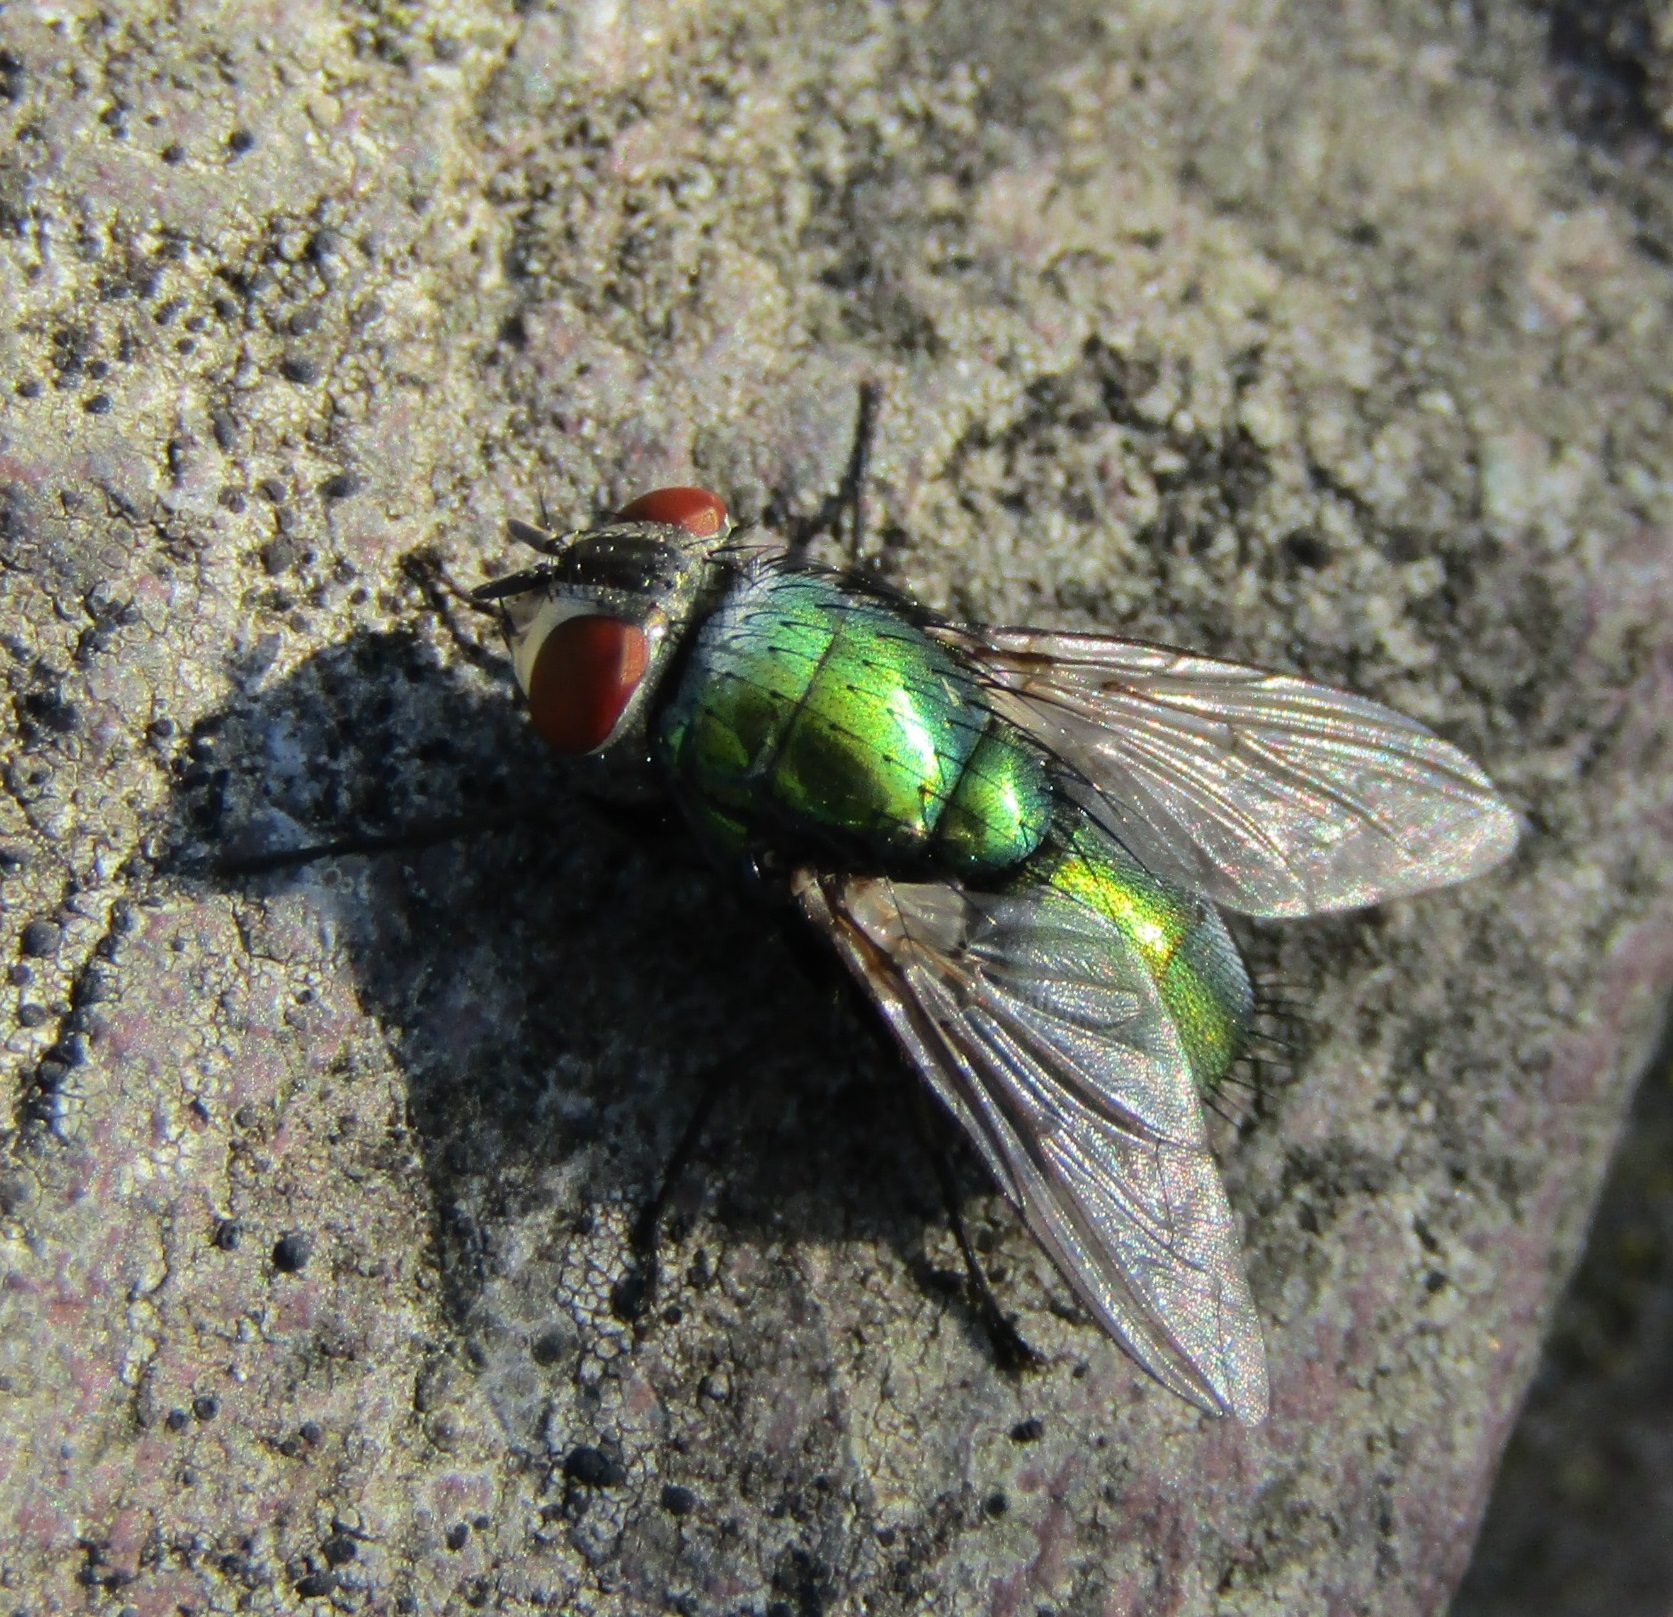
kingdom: Animalia
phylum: Arthropoda
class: Insecta
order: Diptera
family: Calliphoridae
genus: Lucilia
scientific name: Lucilia sericata
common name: Blow fly
